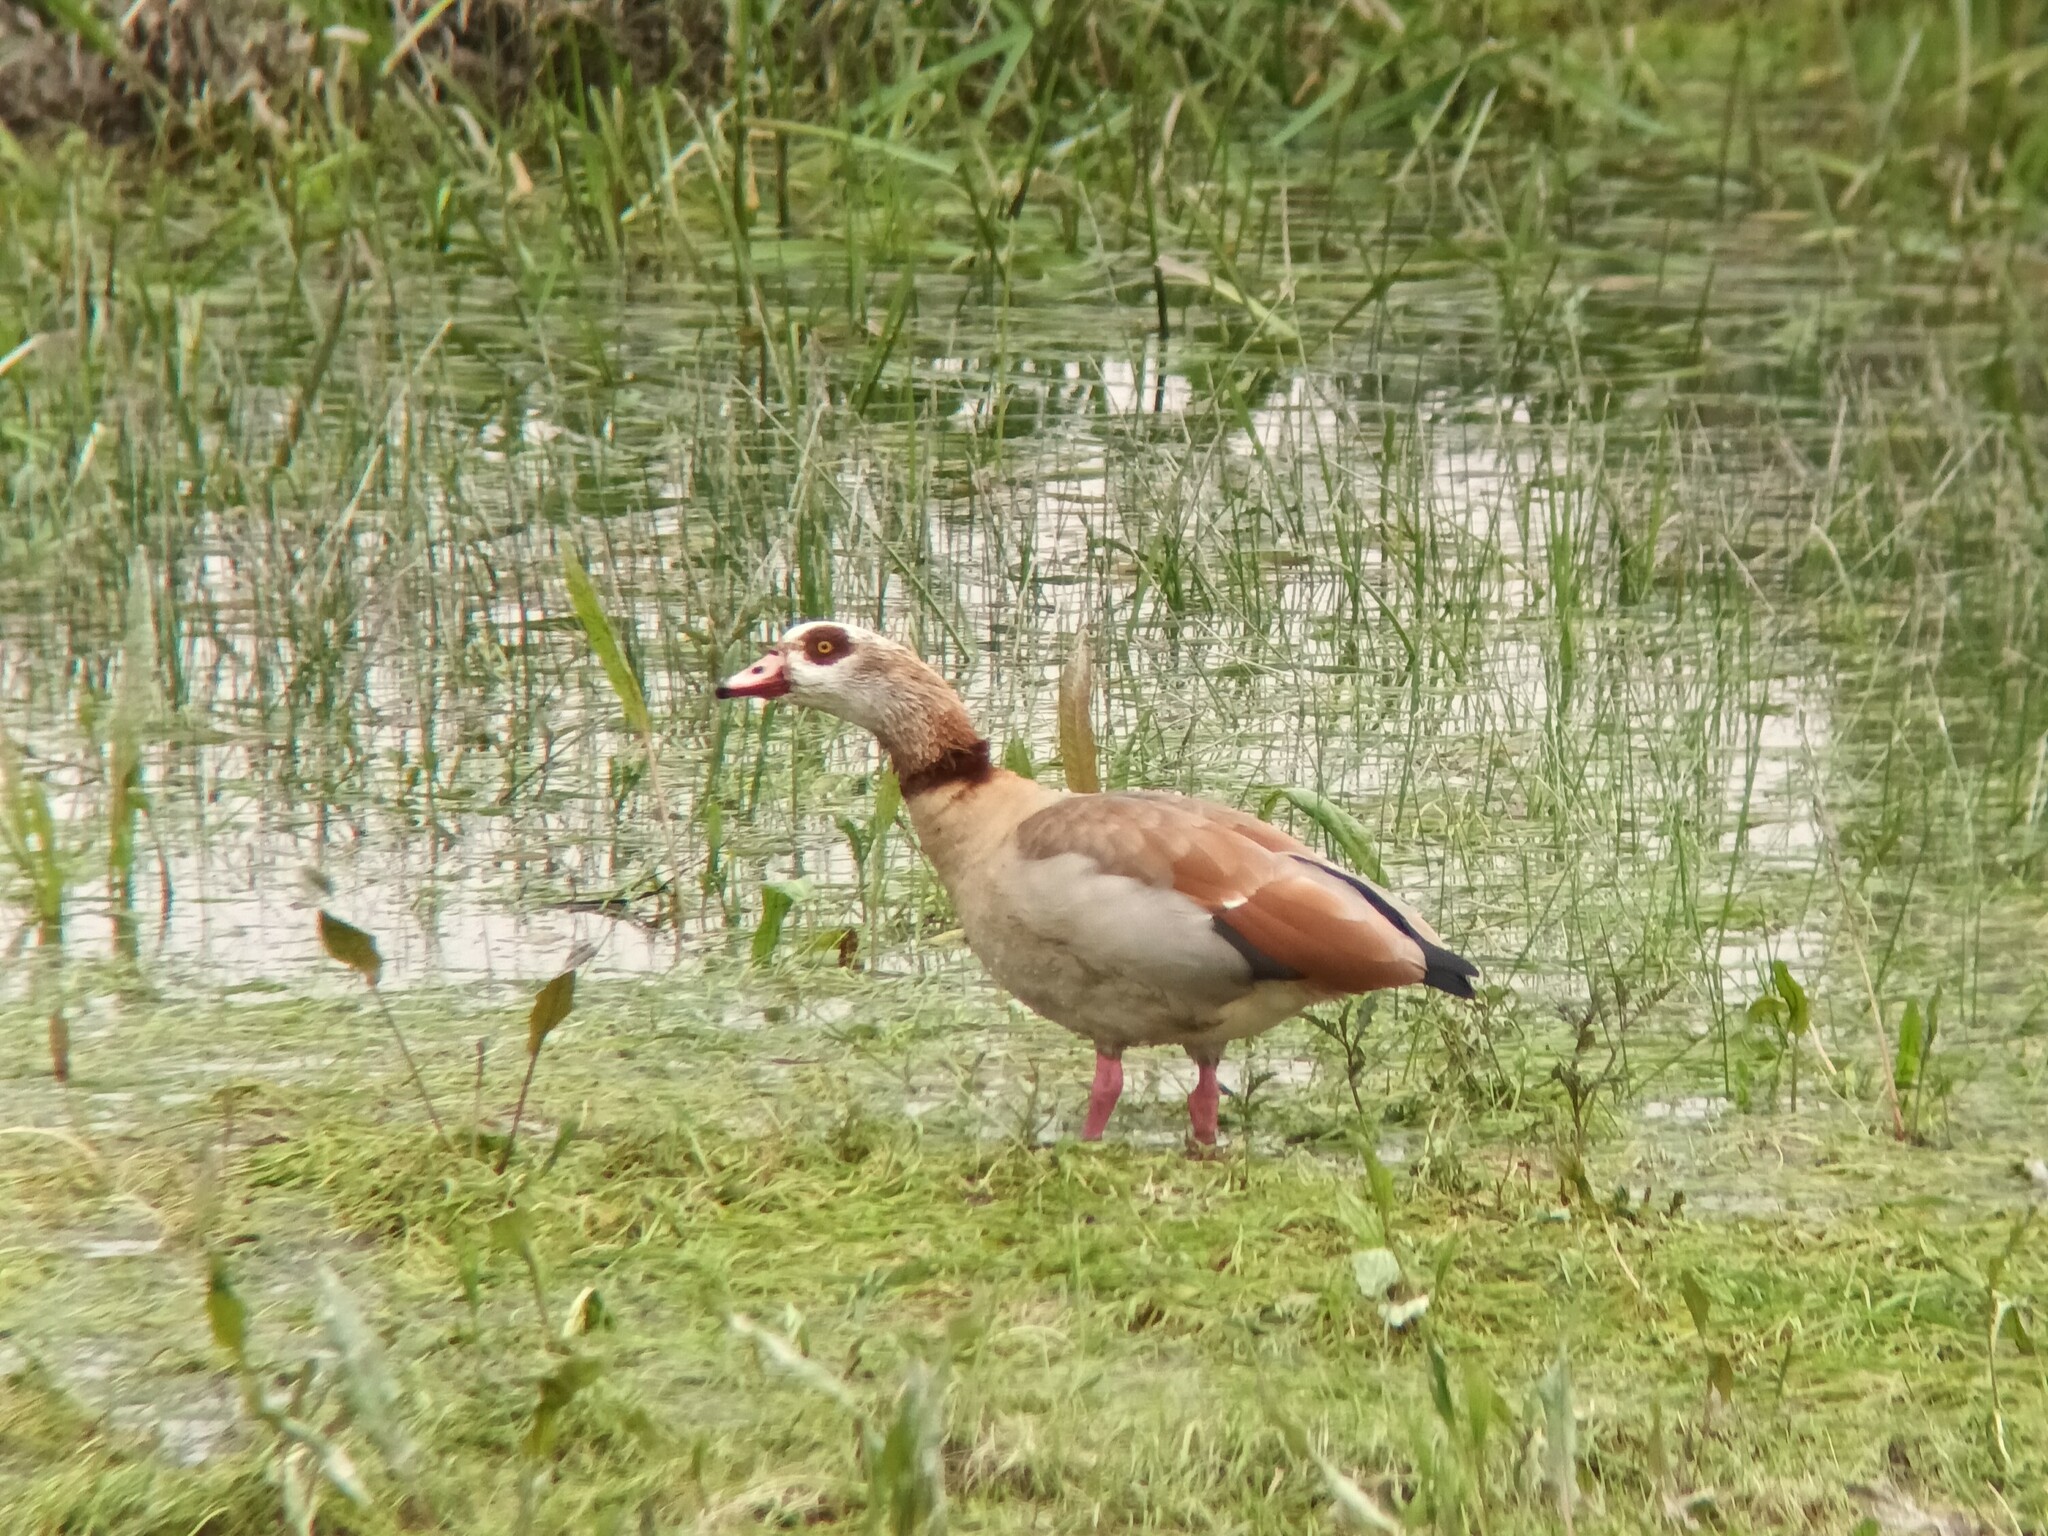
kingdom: Animalia
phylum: Chordata
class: Aves
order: Anseriformes
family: Anatidae
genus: Alopochen
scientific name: Alopochen aegyptiaca
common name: Egyptian goose
